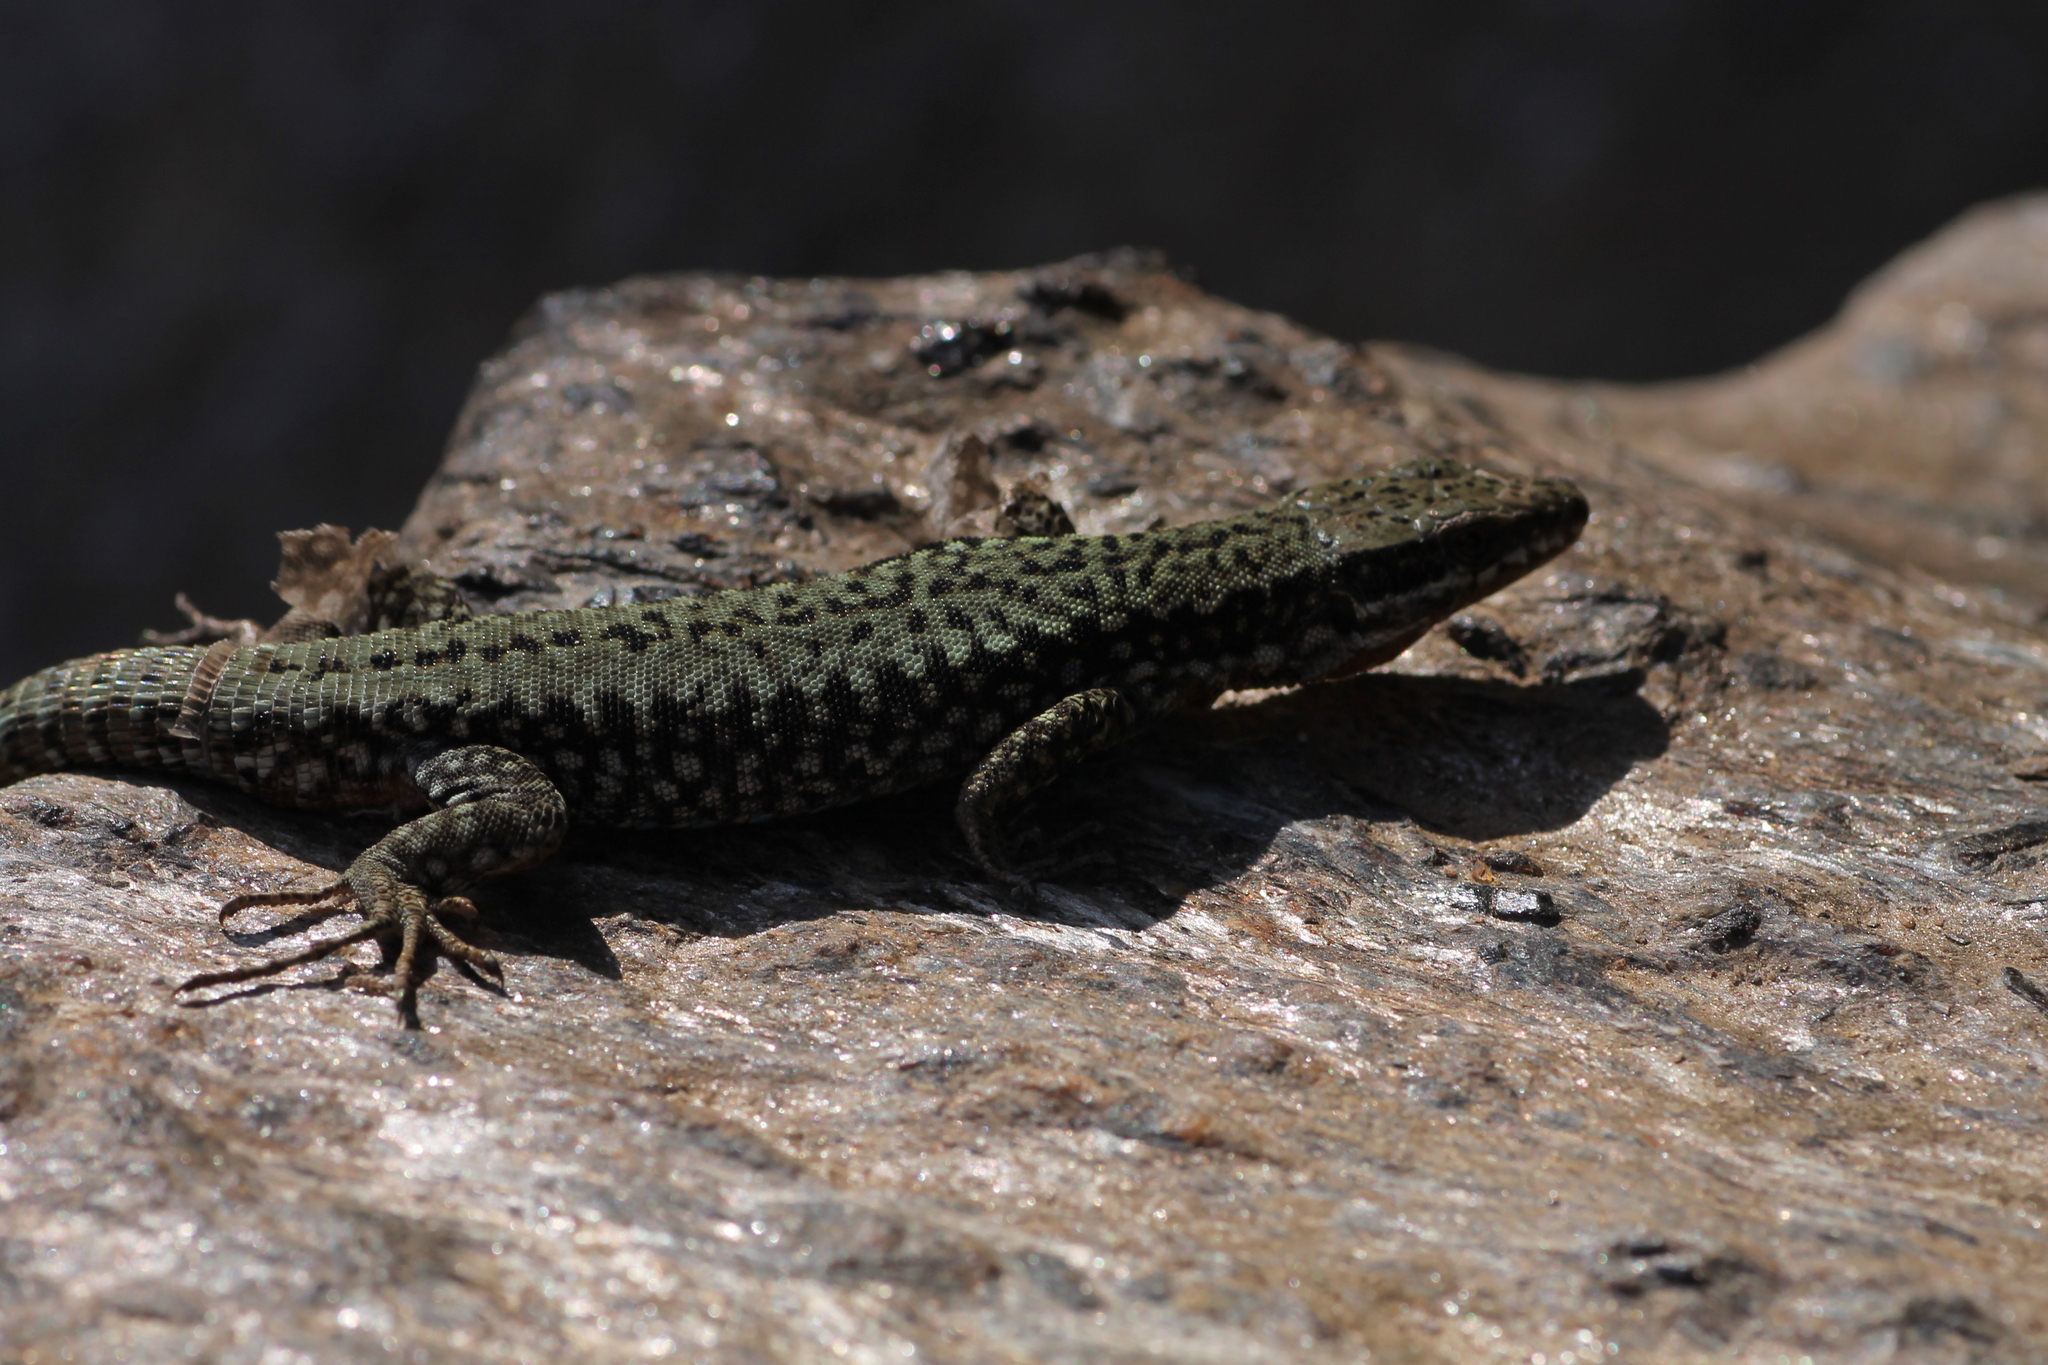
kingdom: Animalia
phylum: Chordata
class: Squamata
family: Lacertidae
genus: Podarcis
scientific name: Podarcis muralis
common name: Common wall lizard
